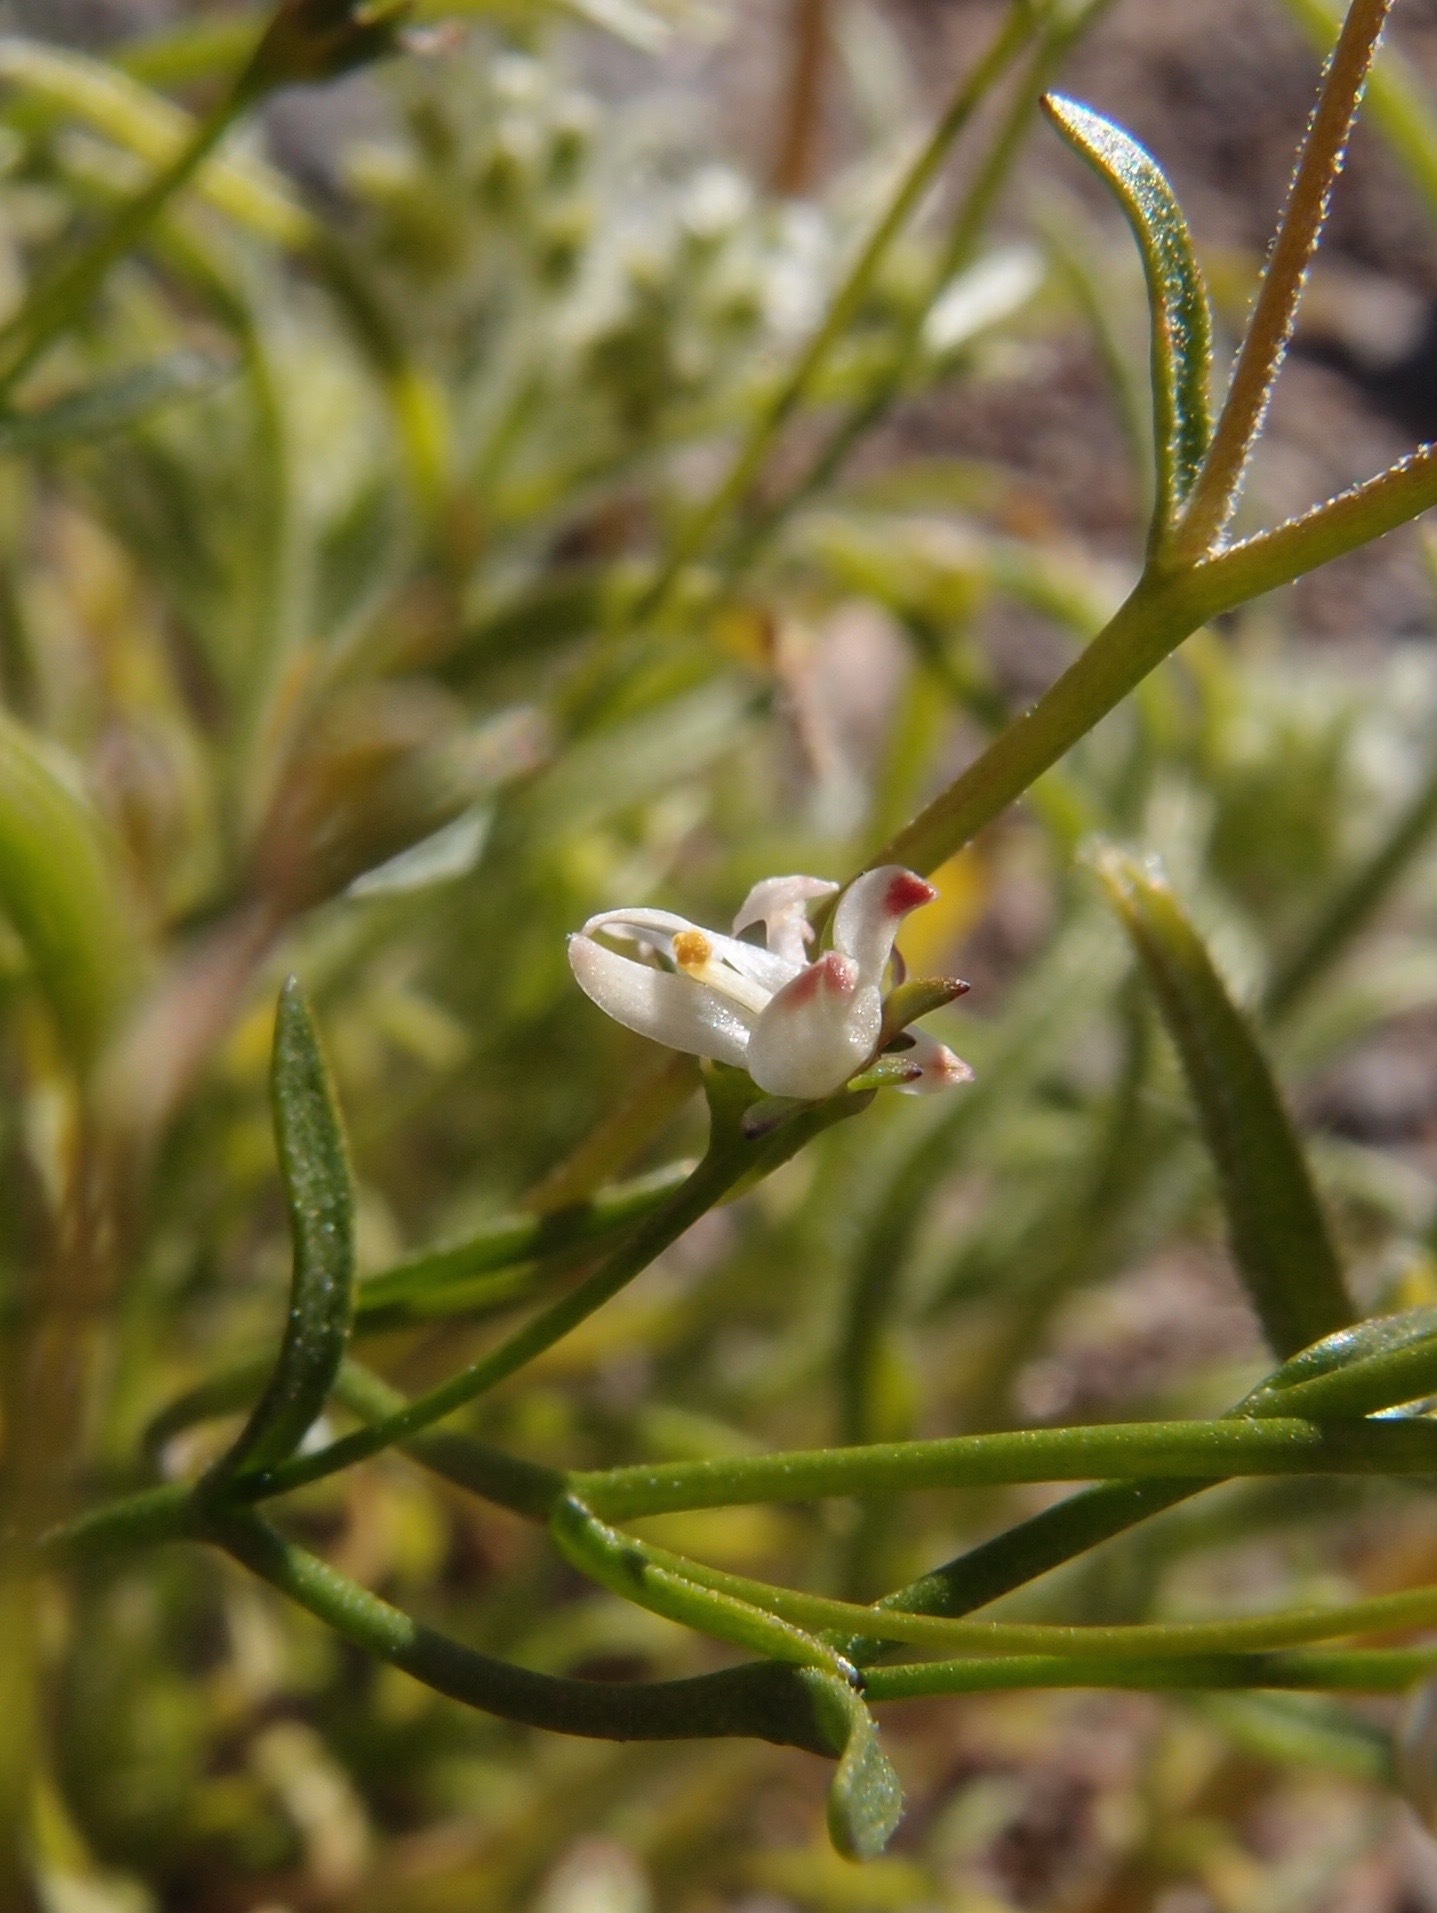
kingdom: Plantae
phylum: Tracheophyta
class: Magnoliopsida
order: Asterales
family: Campanulaceae
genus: Nemacladus
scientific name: Nemacladus orientalis
